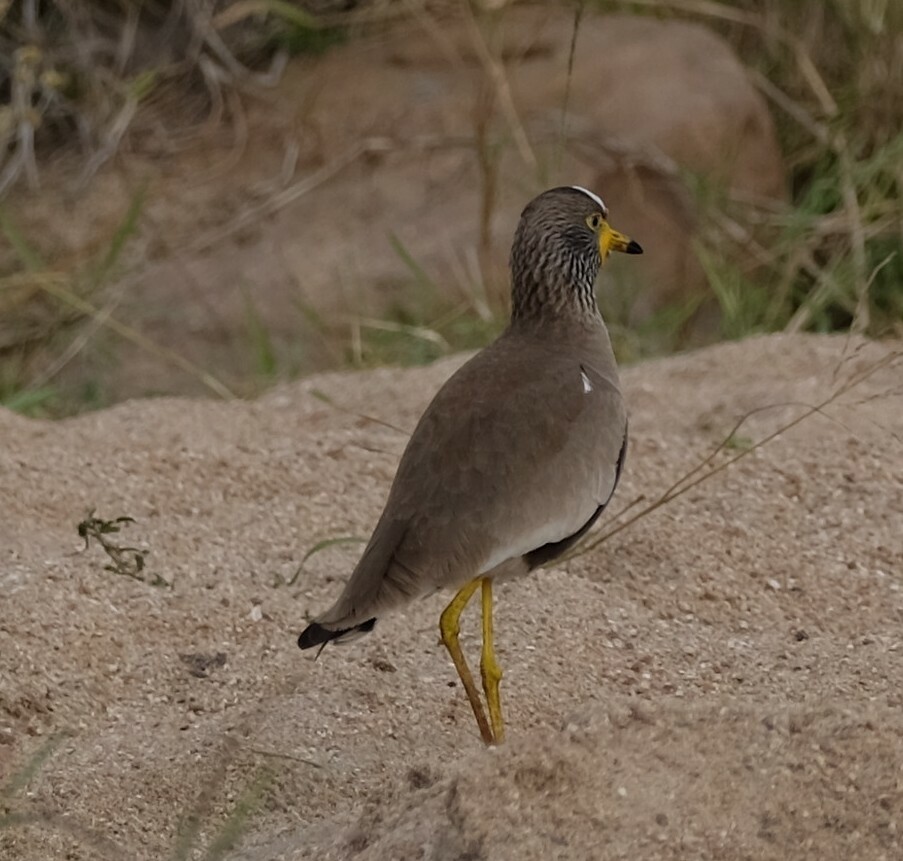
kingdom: Animalia
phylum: Chordata
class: Aves
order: Charadriiformes
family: Charadriidae
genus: Vanellus
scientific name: Vanellus senegallus
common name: African wattled lapwing
